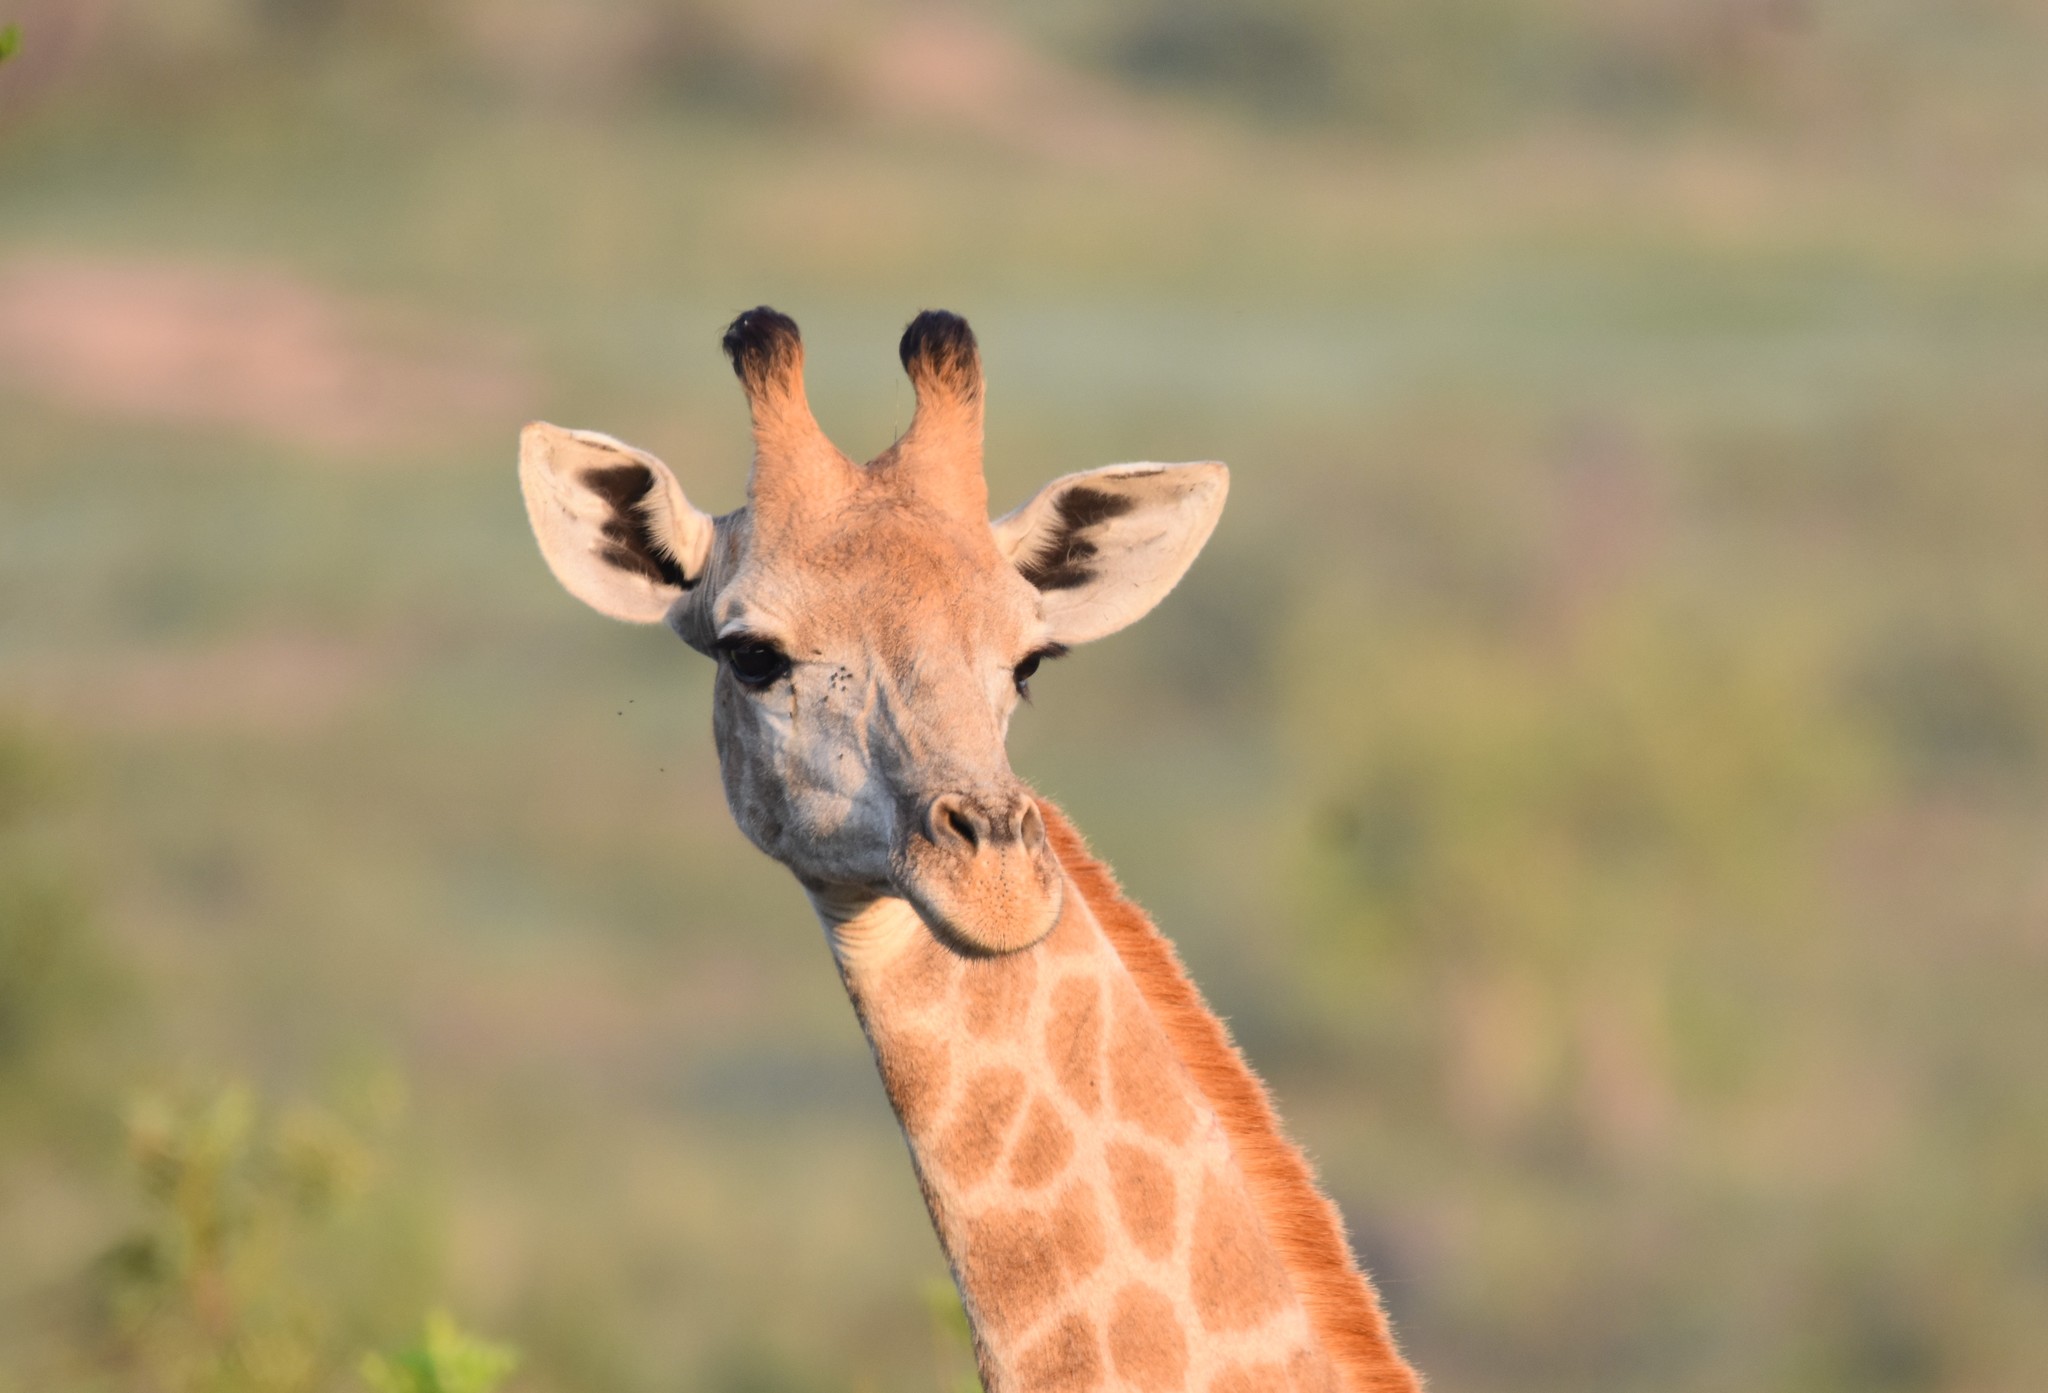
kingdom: Animalia
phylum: Chordata
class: Mammalia
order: Artiodactyla
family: Giraffidae
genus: Giraffa
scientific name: Giraffa giraffa
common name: Southern giraffe
